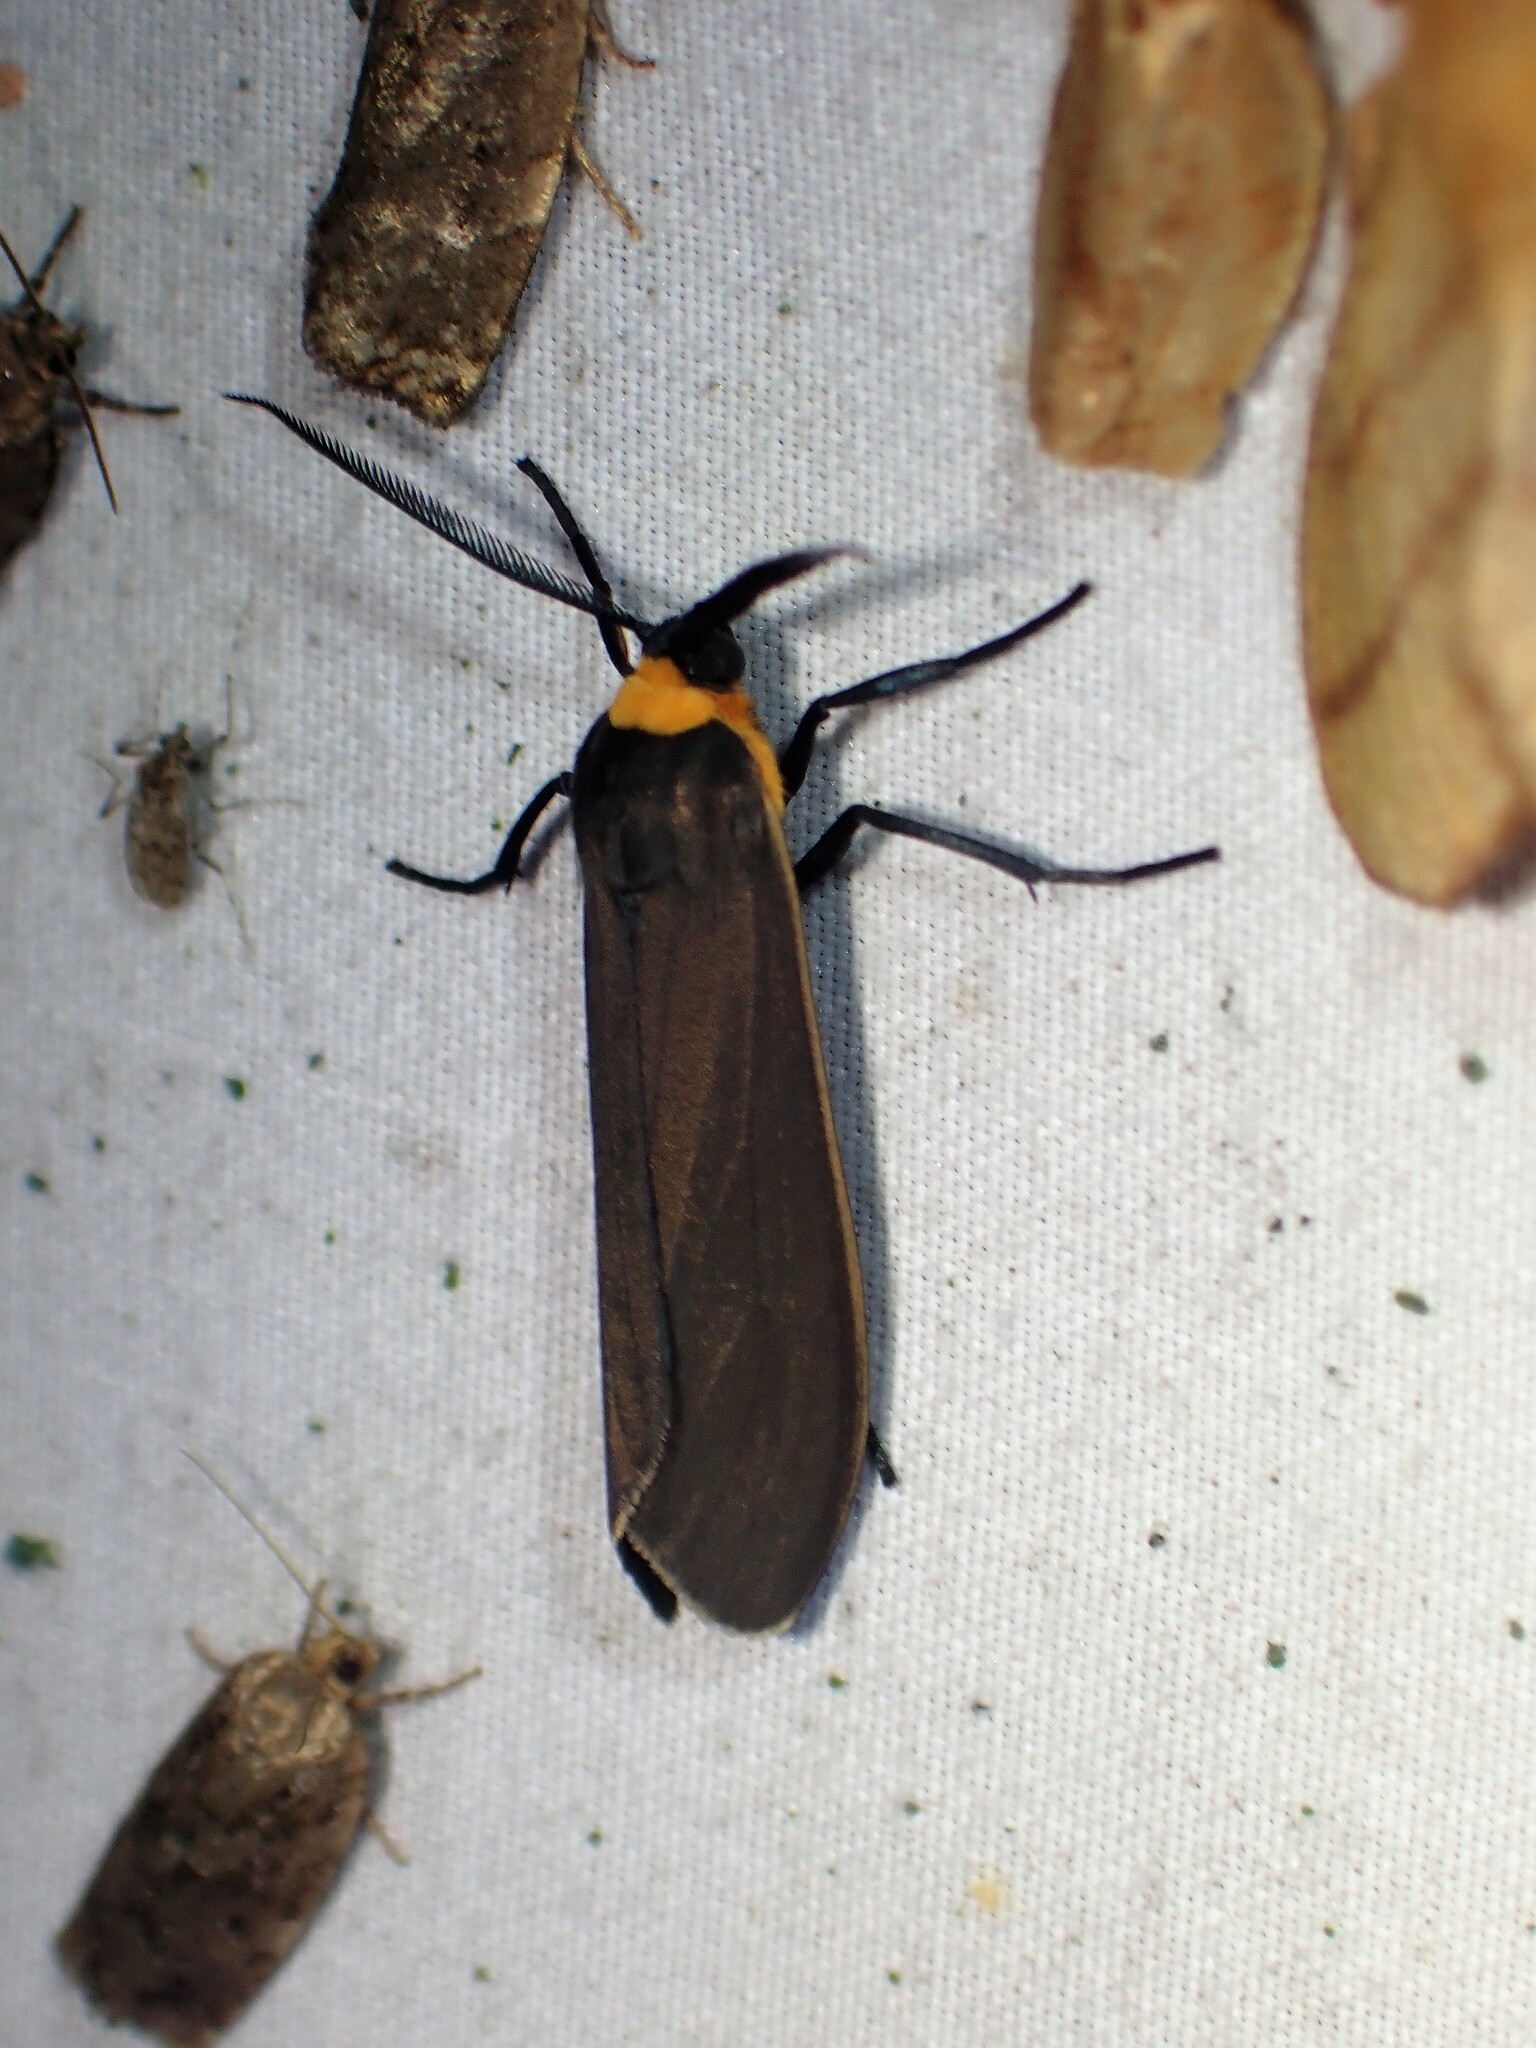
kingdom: Animalia
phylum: Arthropoda
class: Insecta
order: Lepidoptera
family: Erebidae
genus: Cisseps
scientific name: Cisseps fulvicollis
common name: Yellow-collared scape moth
